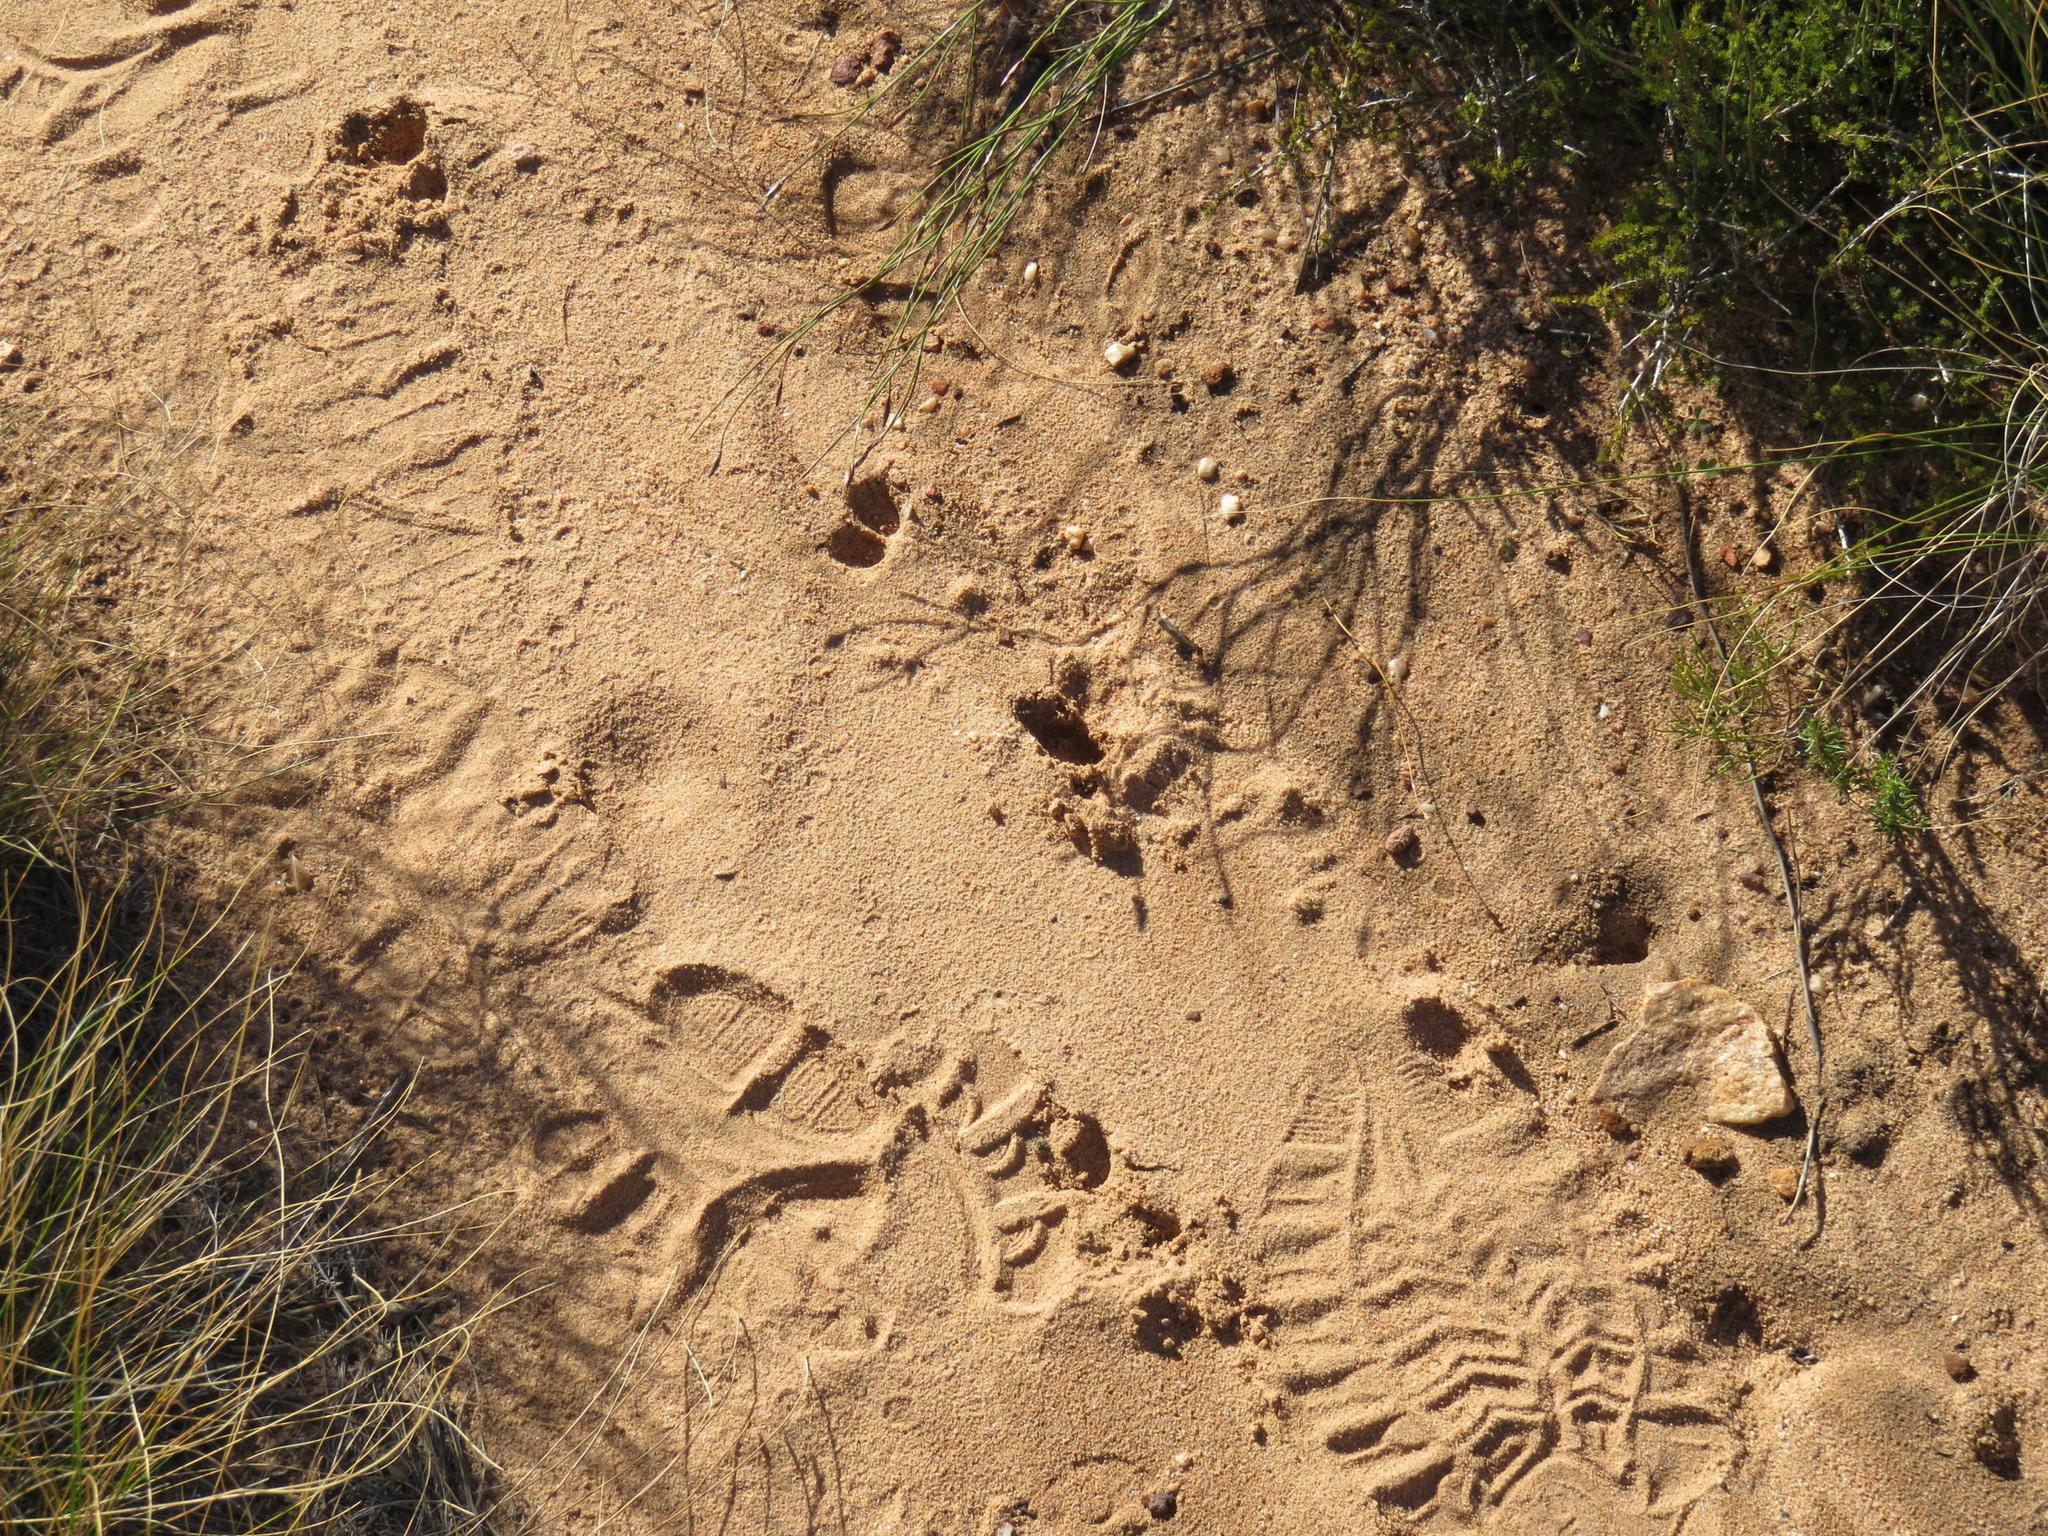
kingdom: Animalia
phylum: Chordata
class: Mammalia
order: Artiodactyla
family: Bovidae
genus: Oreotragus
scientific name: Oreotragus oreotragus
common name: Klipspringer
